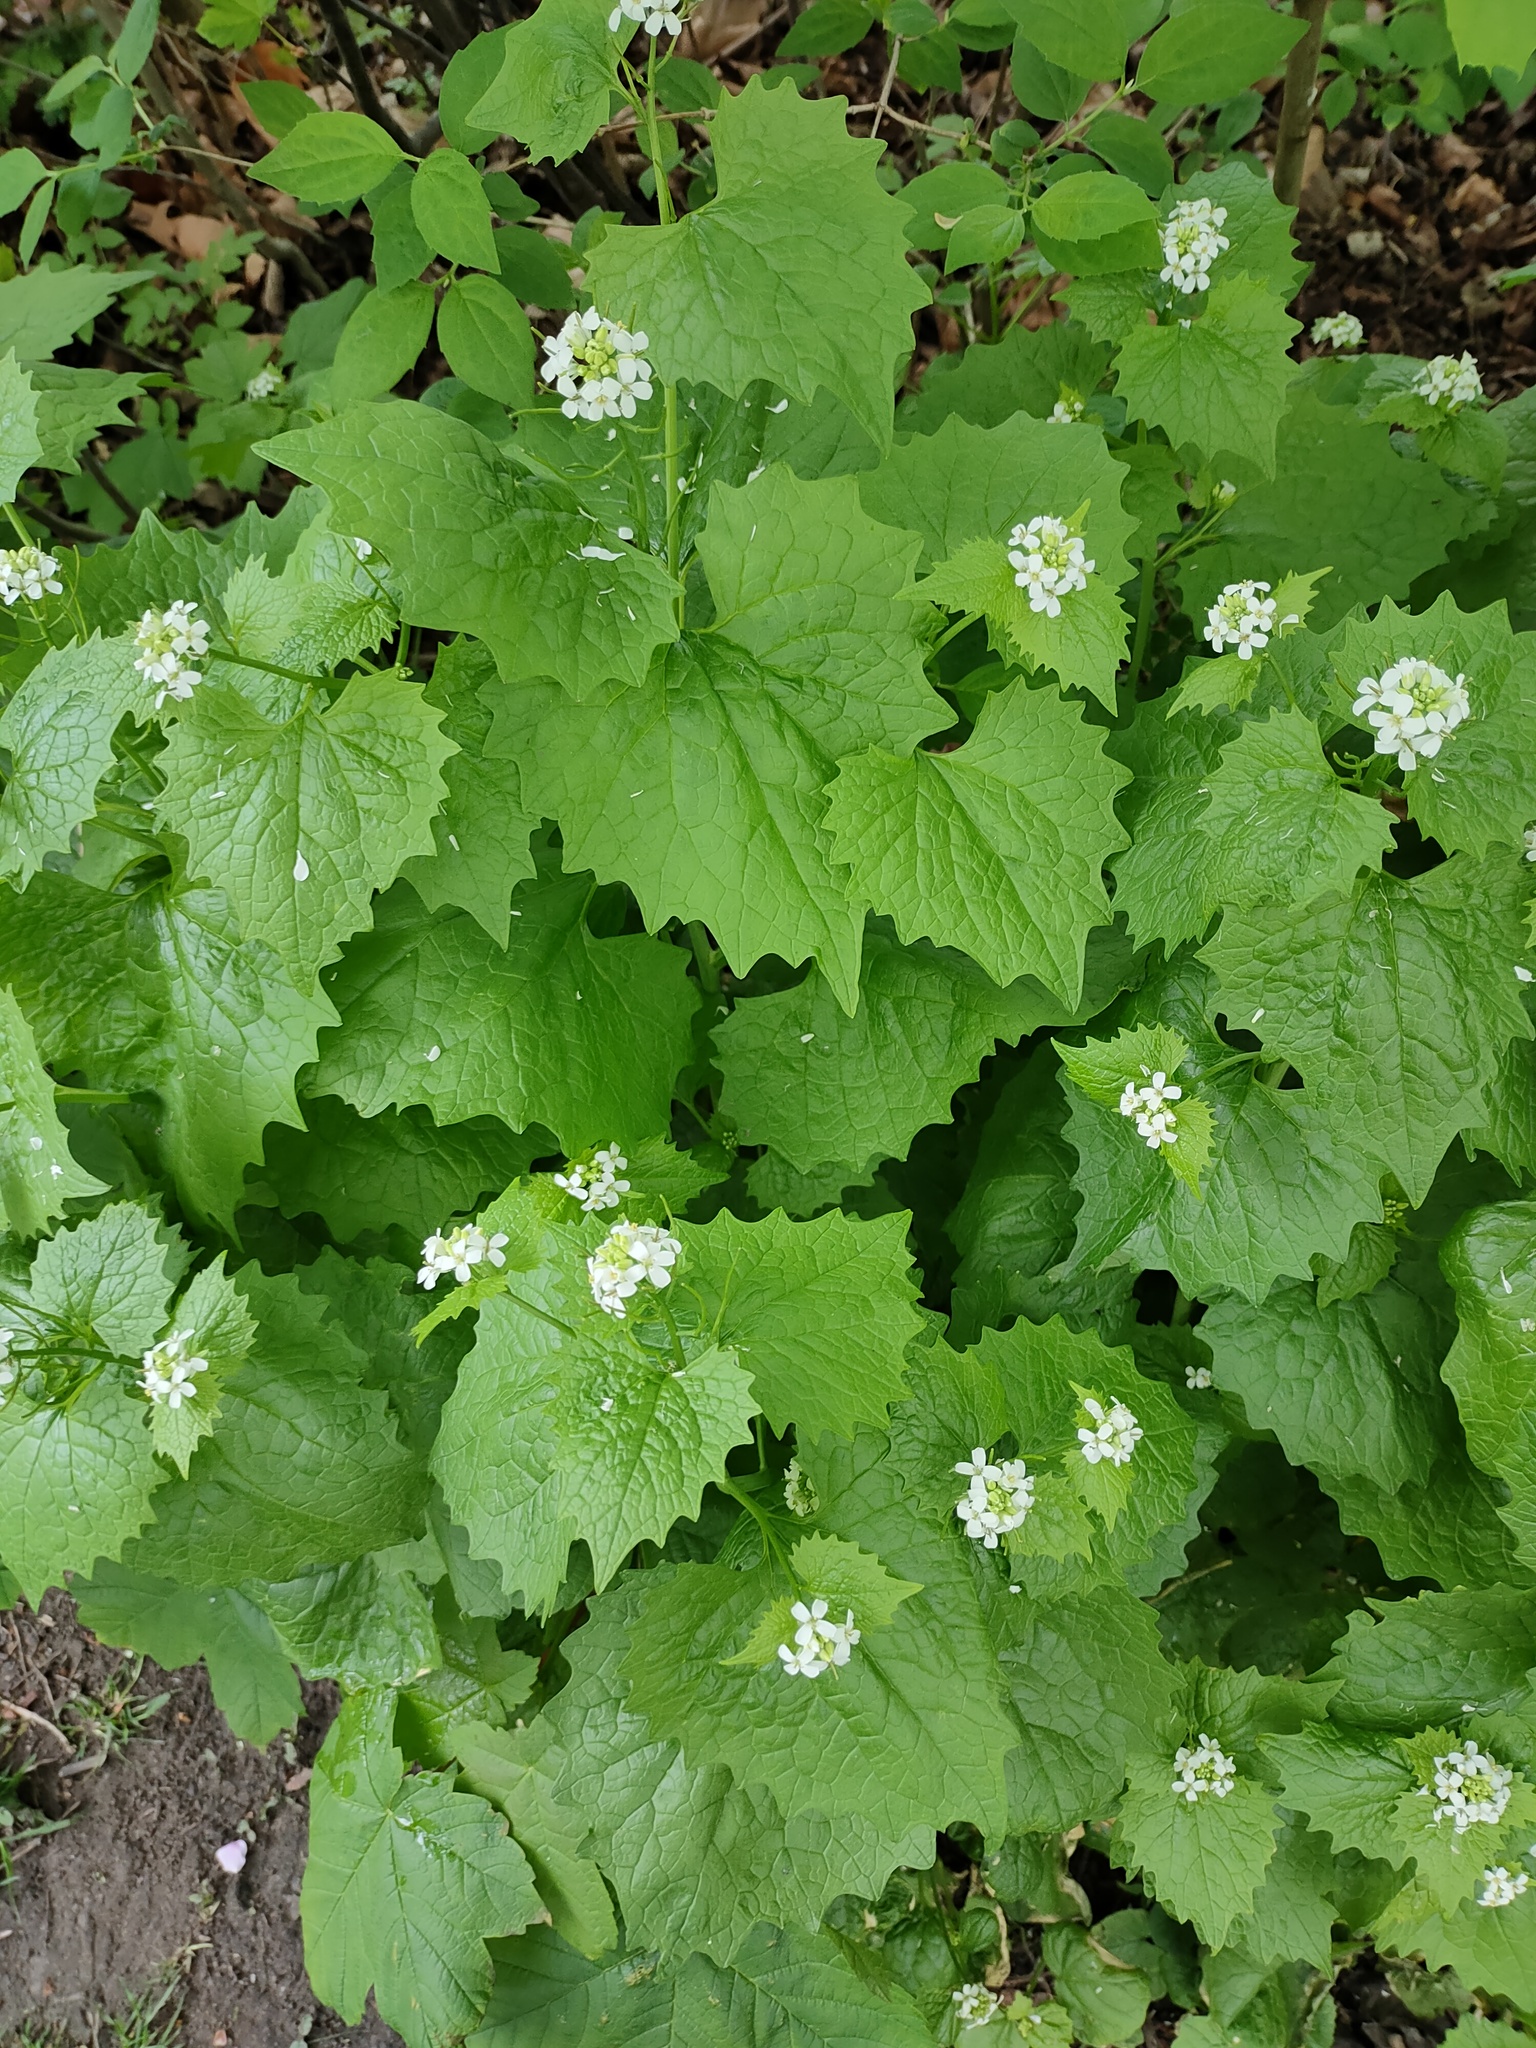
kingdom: Plantae
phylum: Tracheophyta
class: Magnoliopsida
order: Brassicales
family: Brassicaceae
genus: Alliaria
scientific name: Alliaria petiolata
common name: Garlic mustard
